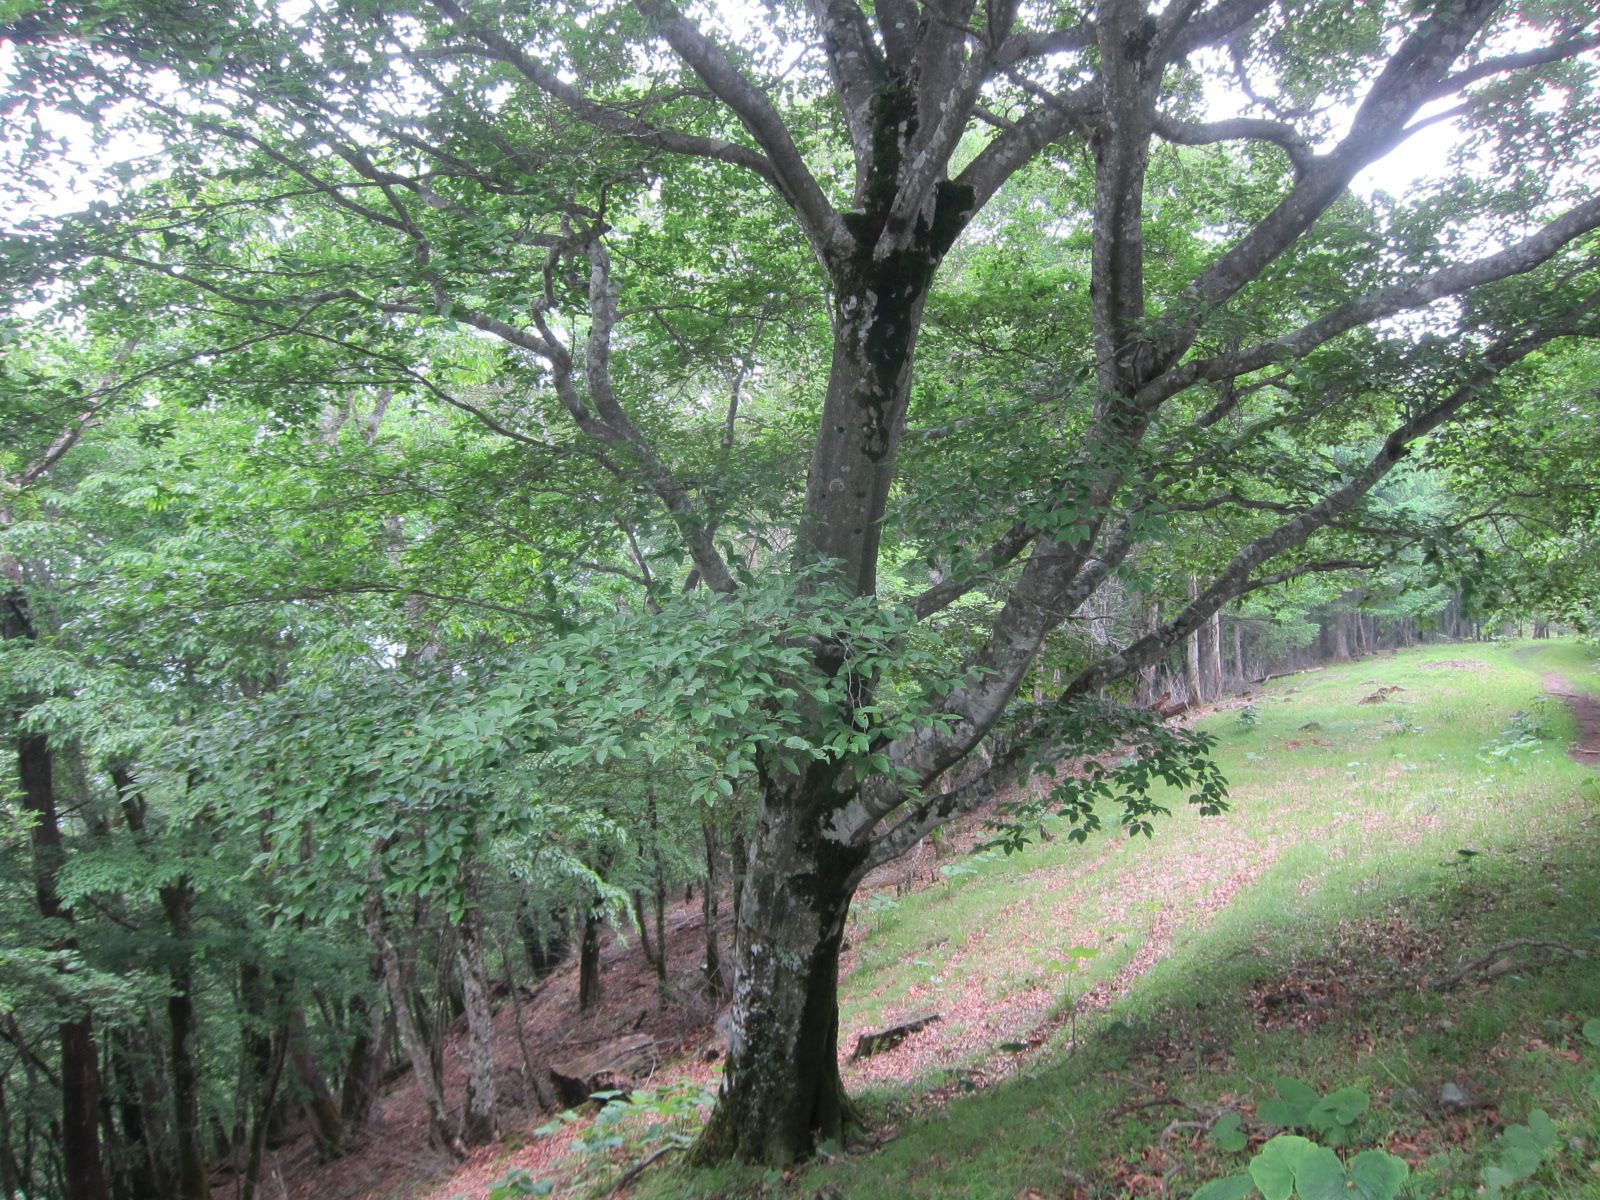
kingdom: Animalia
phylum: Arthropoda
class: Insecta
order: Diptera
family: Cecidomyiidae
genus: Mikiola
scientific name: Mikiola
